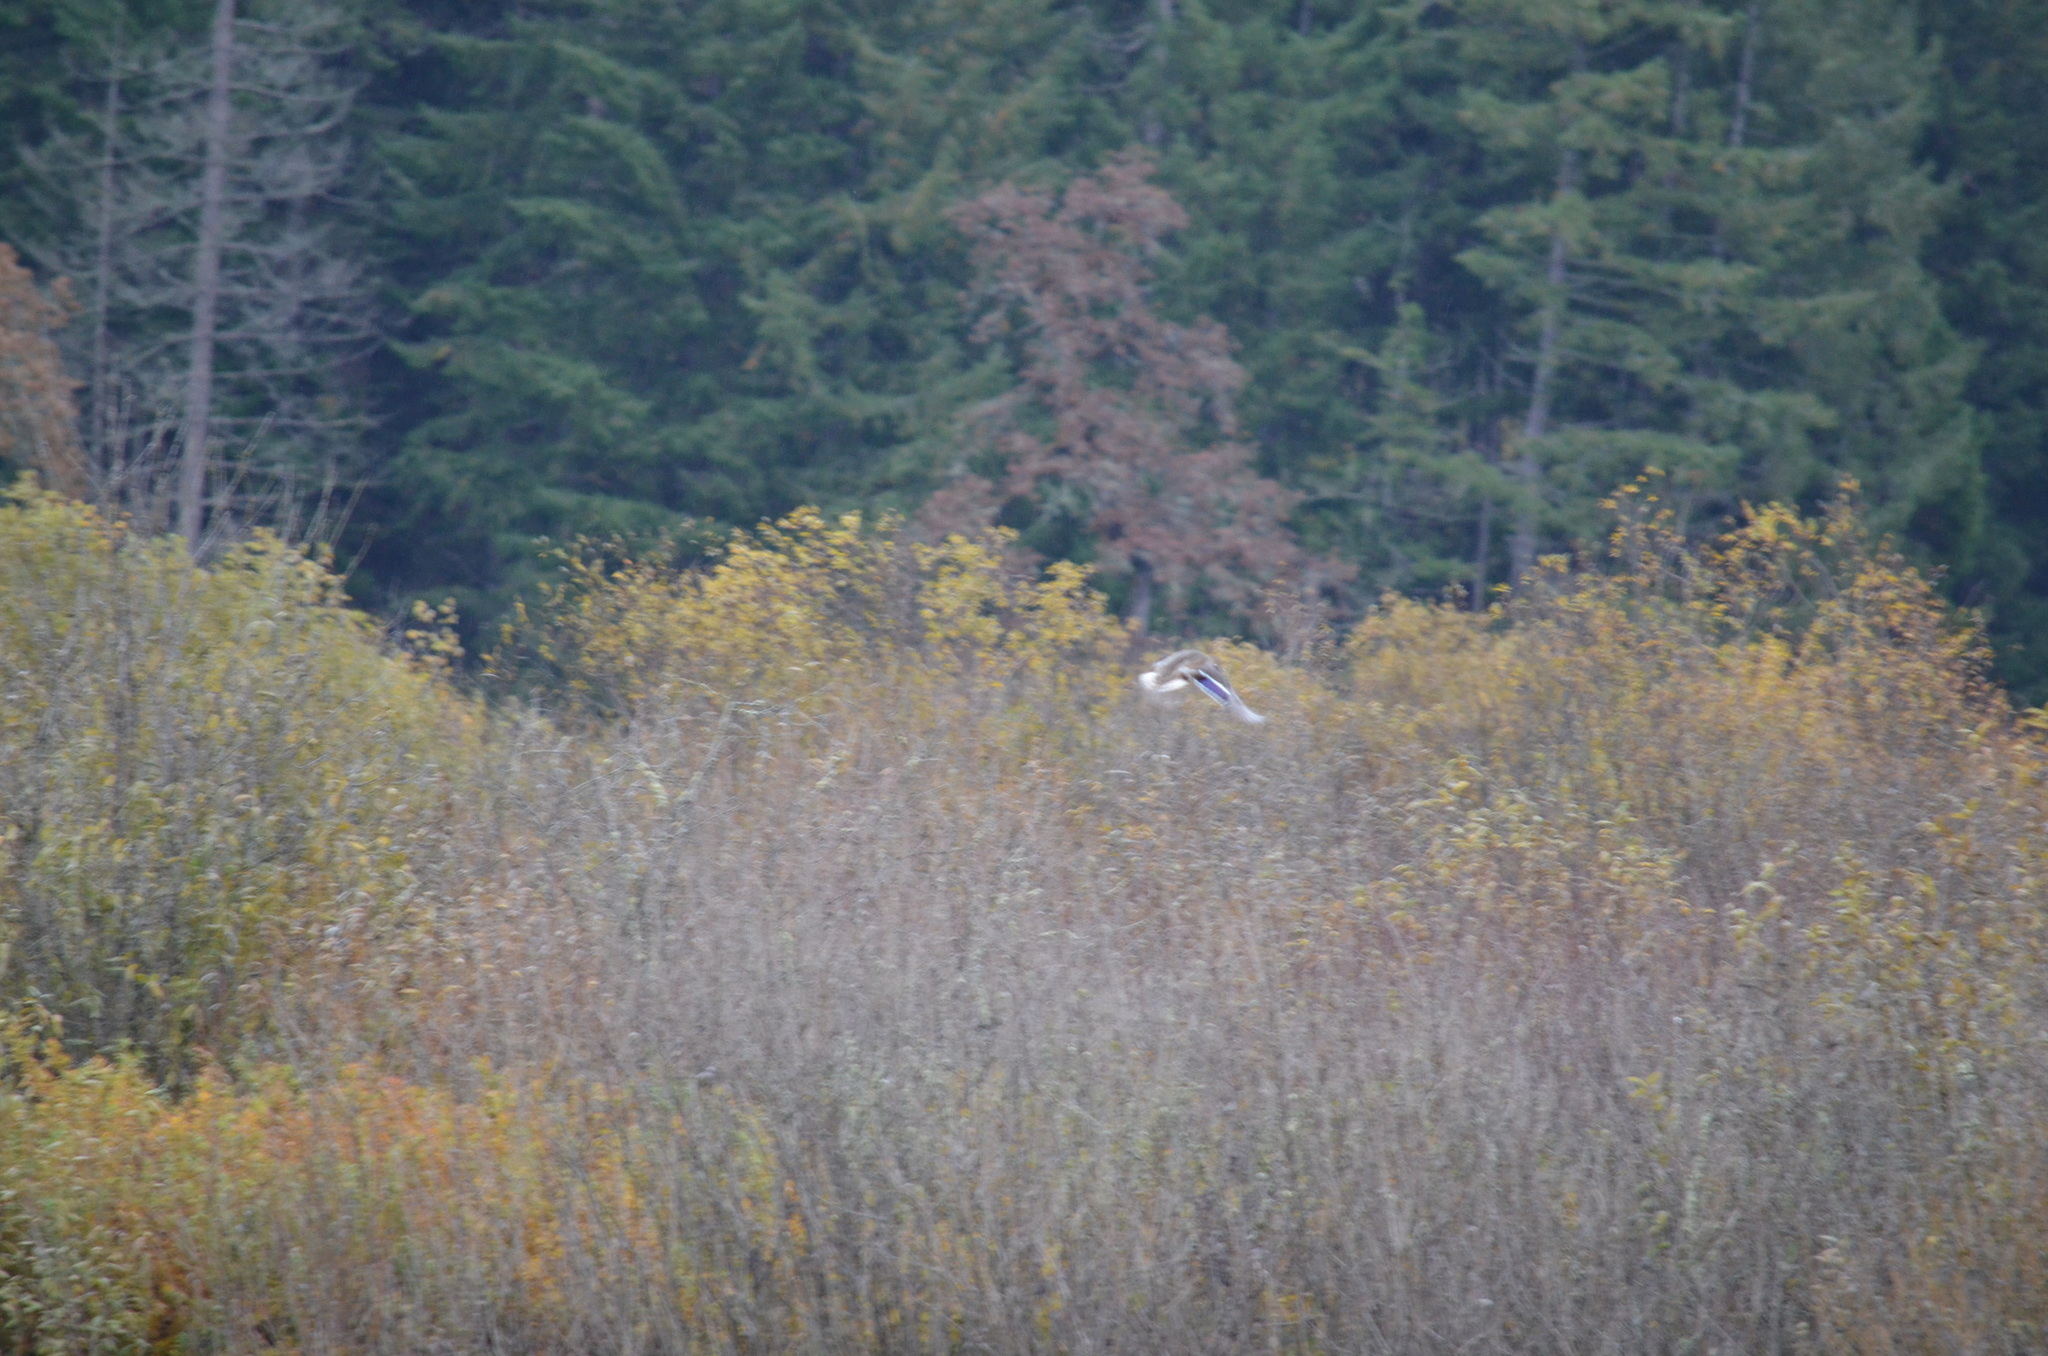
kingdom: Animalia
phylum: Chordata
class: Aves
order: Anseriformes
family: Anatidae
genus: Anas
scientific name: Anas platyrhynchos
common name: Mallard
